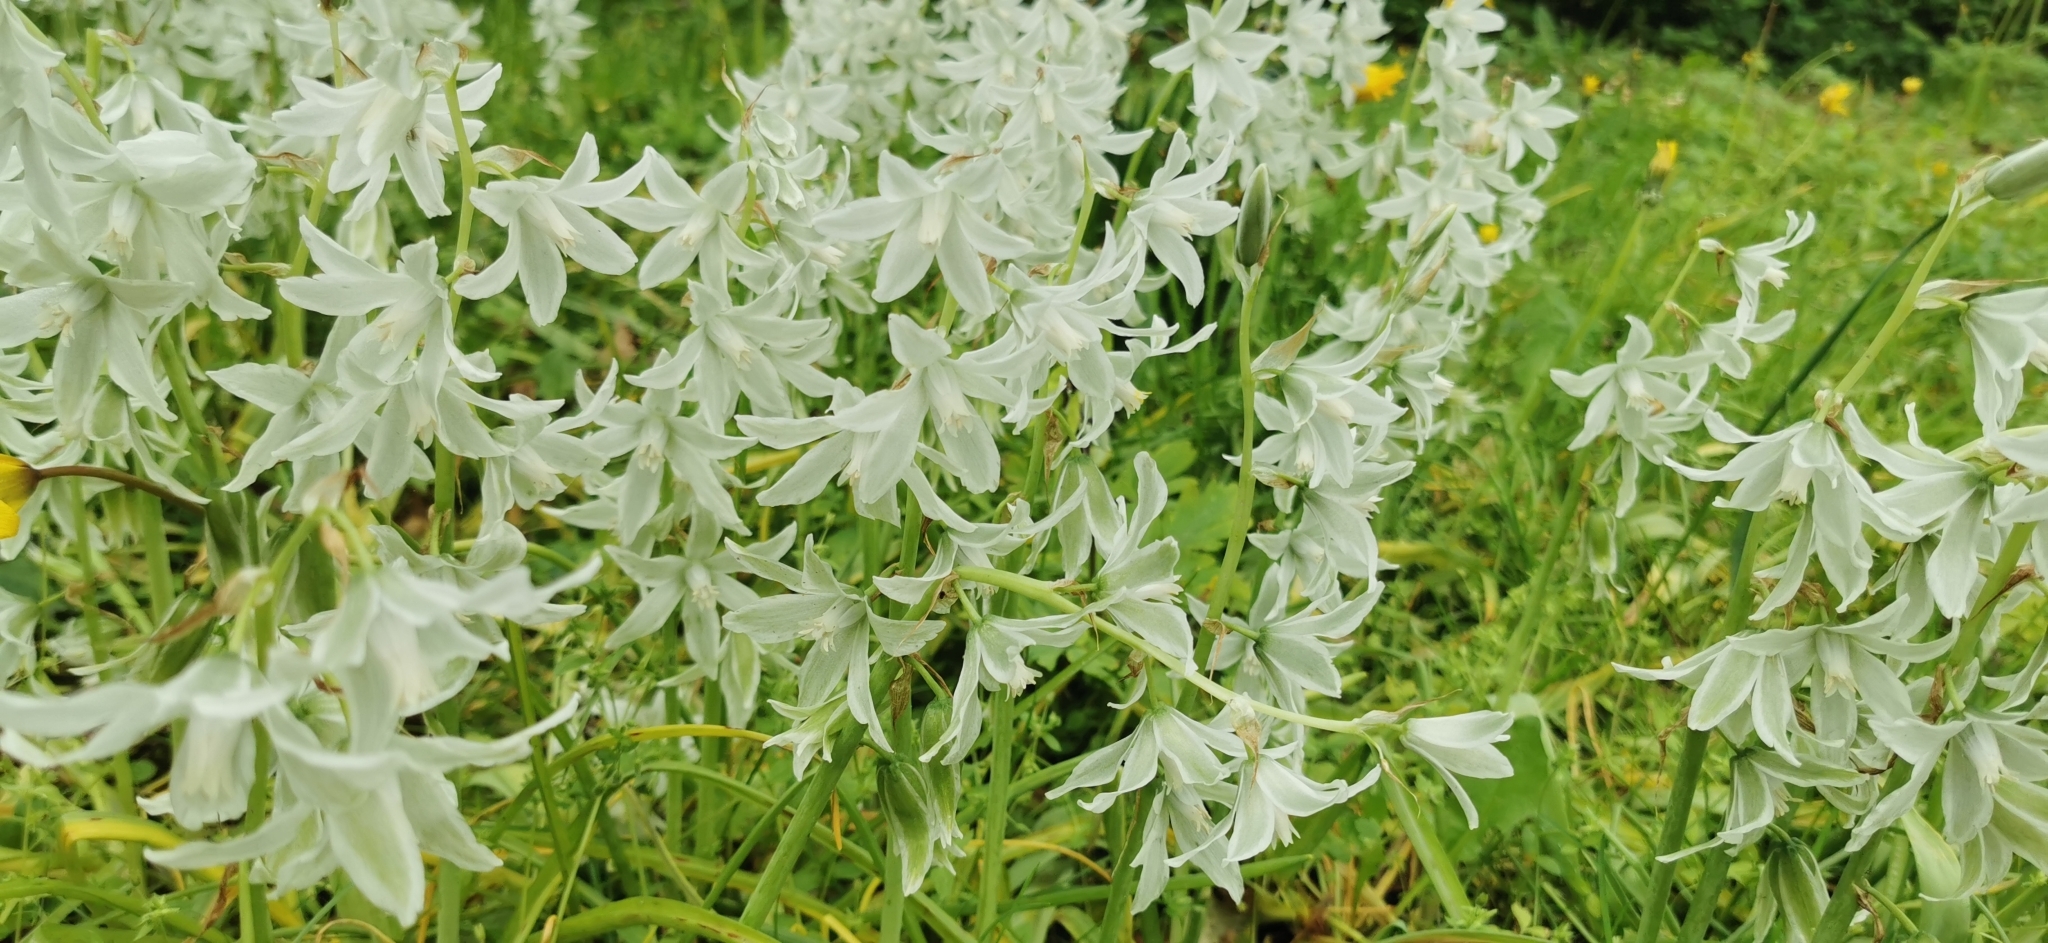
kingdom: Plantae
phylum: Tracheophyta
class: Liliopsida
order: Asparagales
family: Asparagaceae
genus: Ornithogalum
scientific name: Ornithogalum nutans
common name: Drooping star-of-bethlehem
